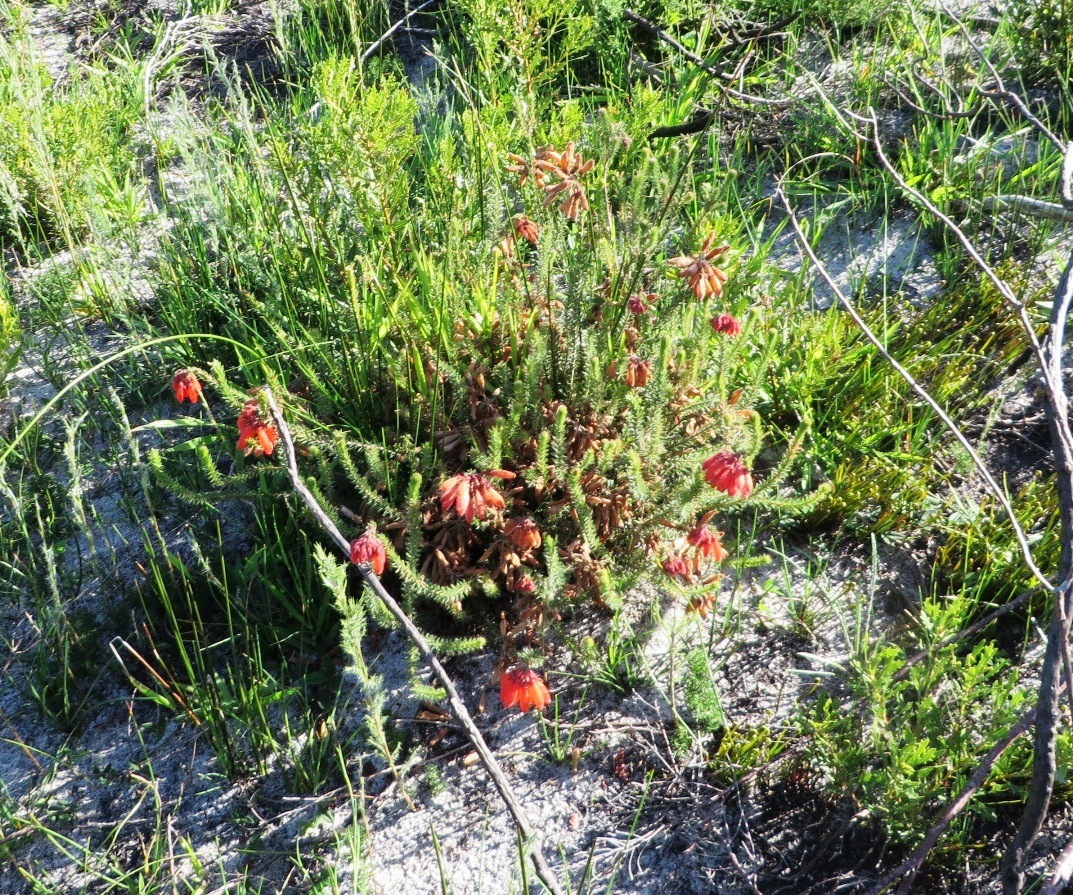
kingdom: Plantae
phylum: Tracheophyta
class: Magnoliopsida
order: Ericales
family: Ericaceae
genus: Erica
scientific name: Erica cerinthoides
